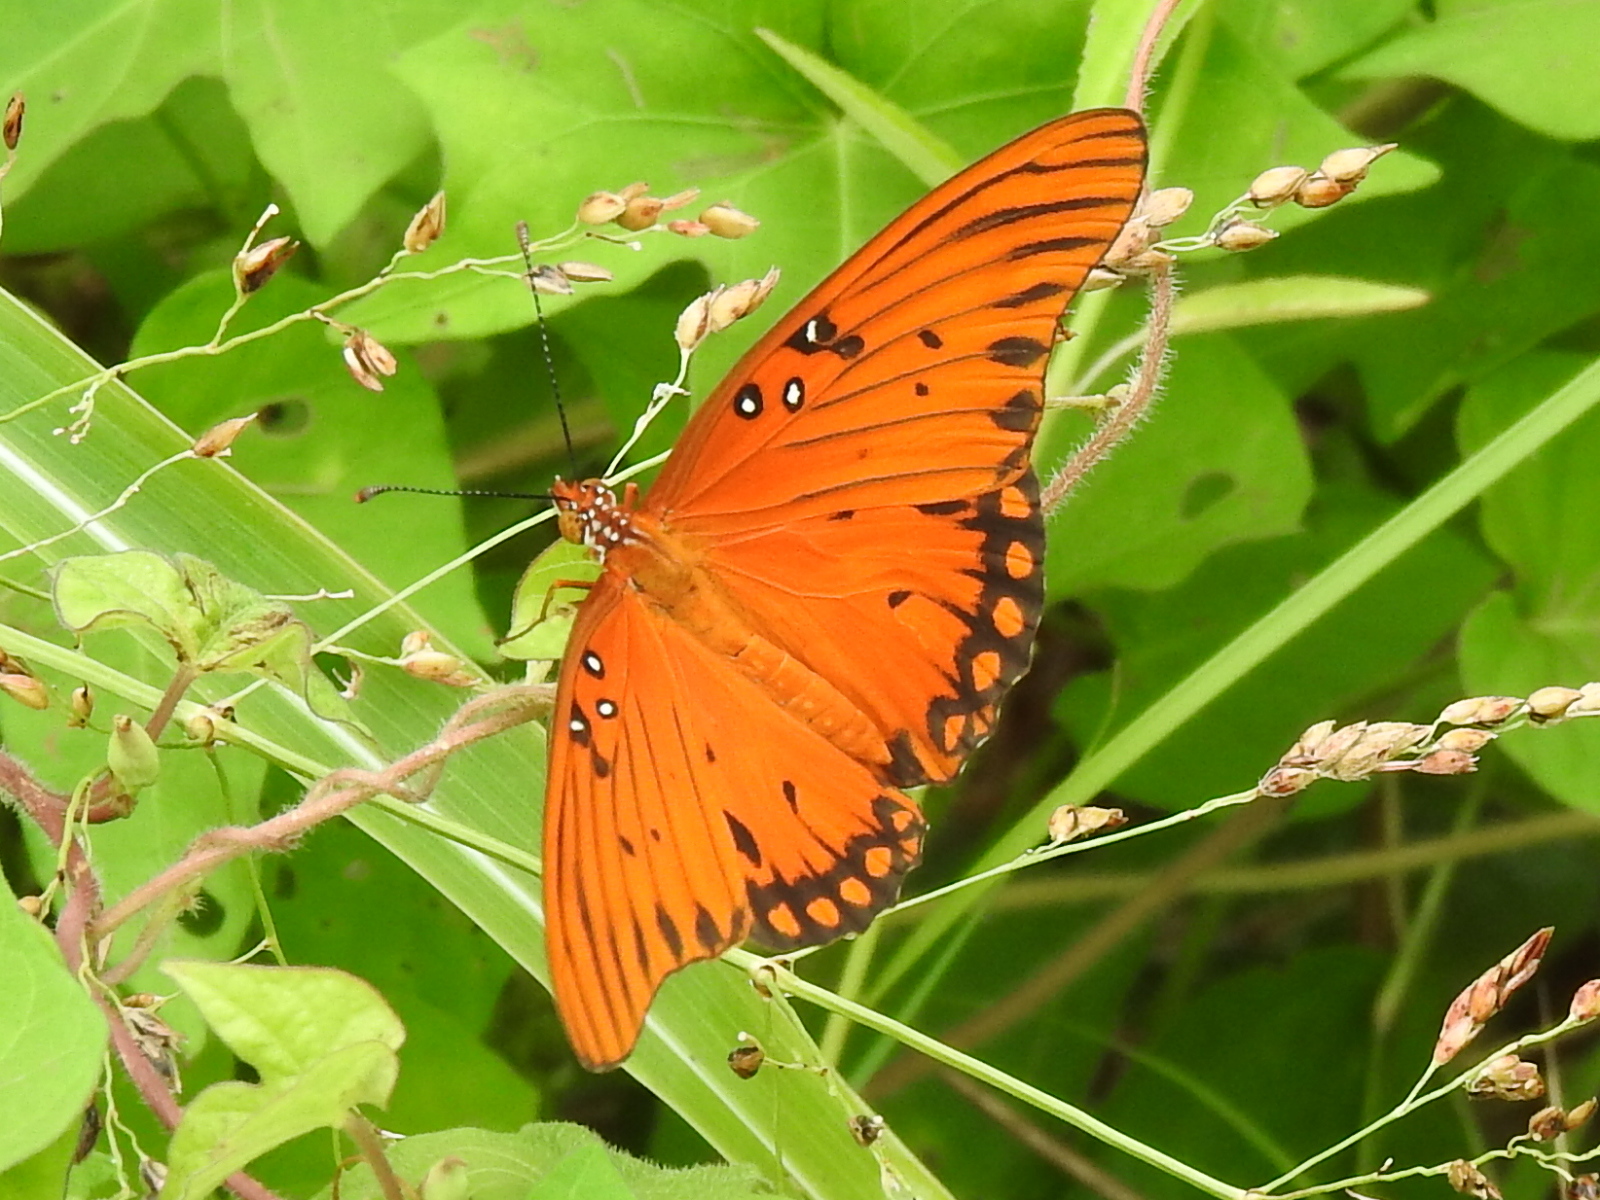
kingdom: Animalia
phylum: Arthropoda
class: Insecta
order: Lepidoptera
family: Nymphalidae
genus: Dione
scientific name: Dione vanillae
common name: Gulf fritillary
